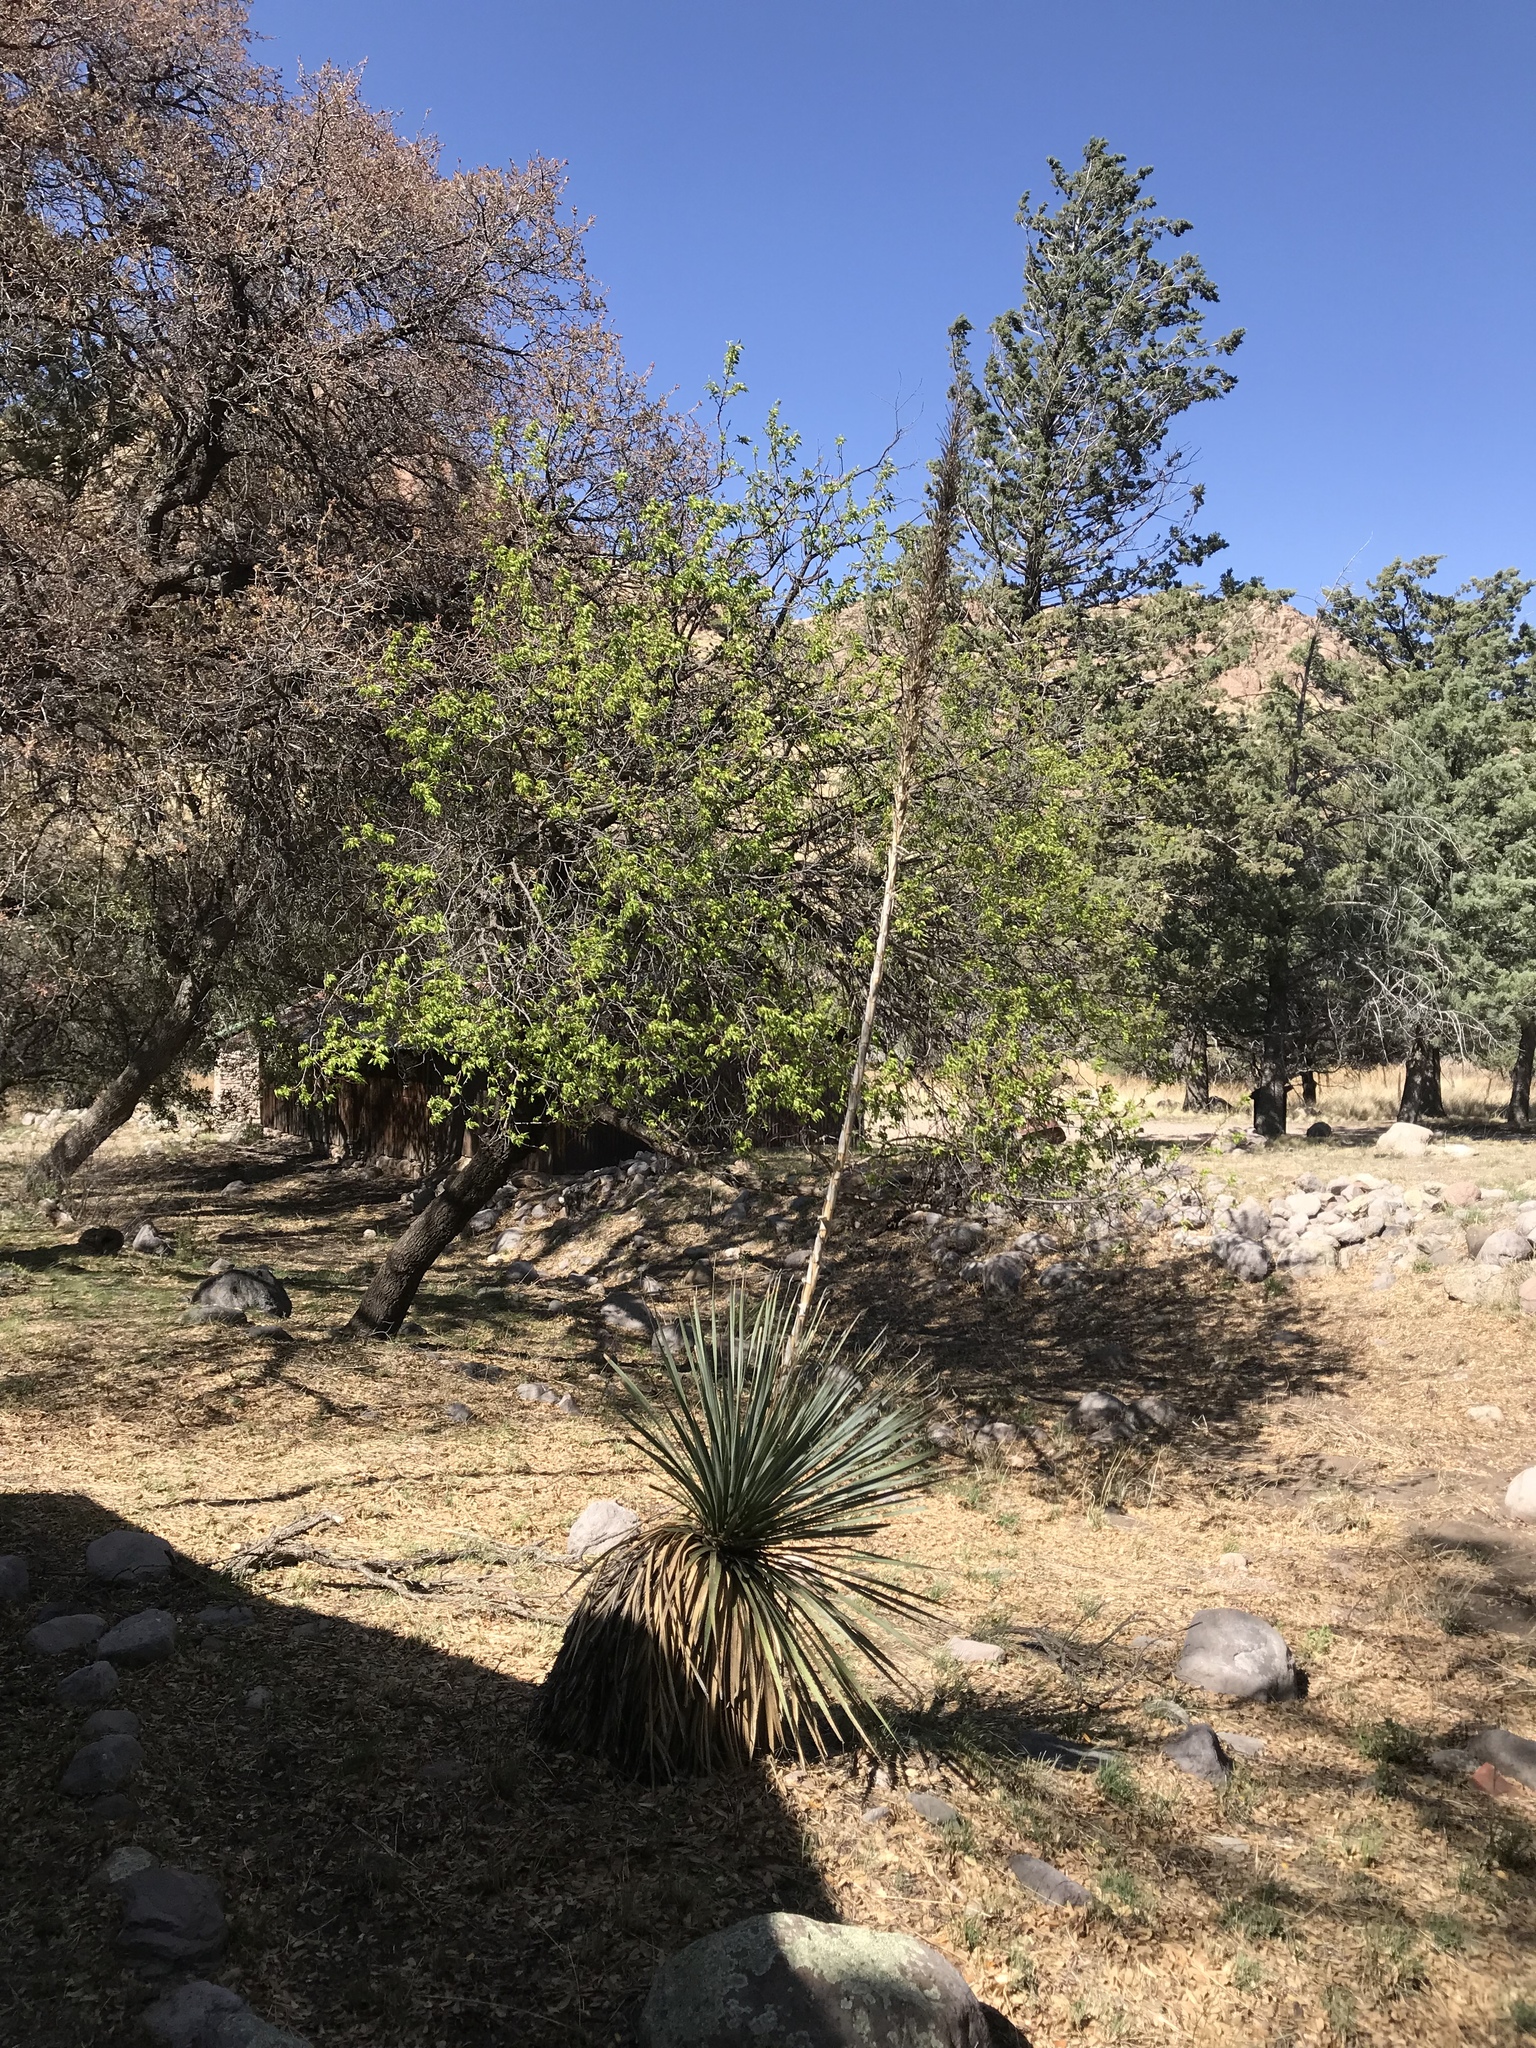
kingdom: Plantae
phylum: Tracheophyta
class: Liliopsida
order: Asparagales
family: Asparagaceae
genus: Dasylirion
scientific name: Dasylirion wheeleri
